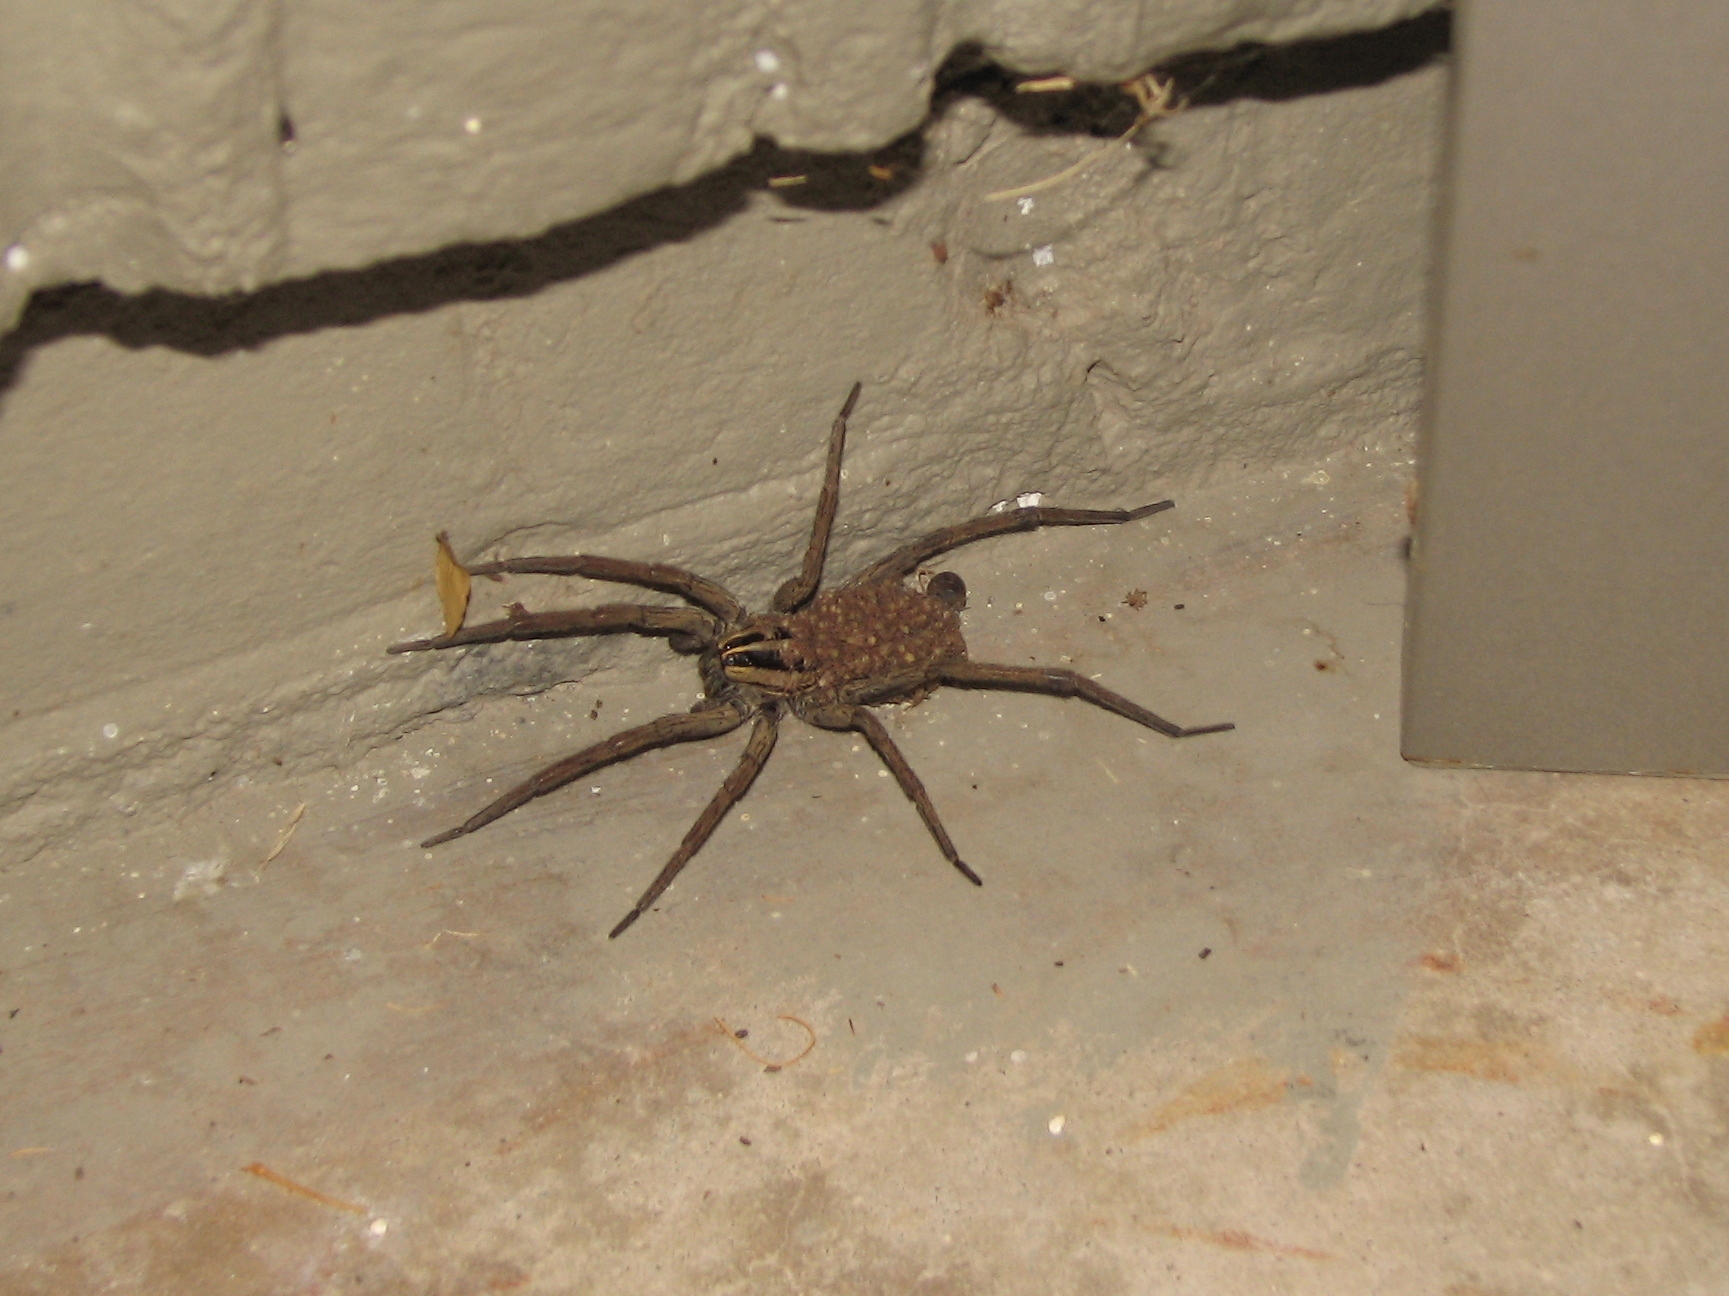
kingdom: Animalia
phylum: Arthropoda
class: Arachnida
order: Araneae
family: Lycosidae
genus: Rabidosa
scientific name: Rabidosa
